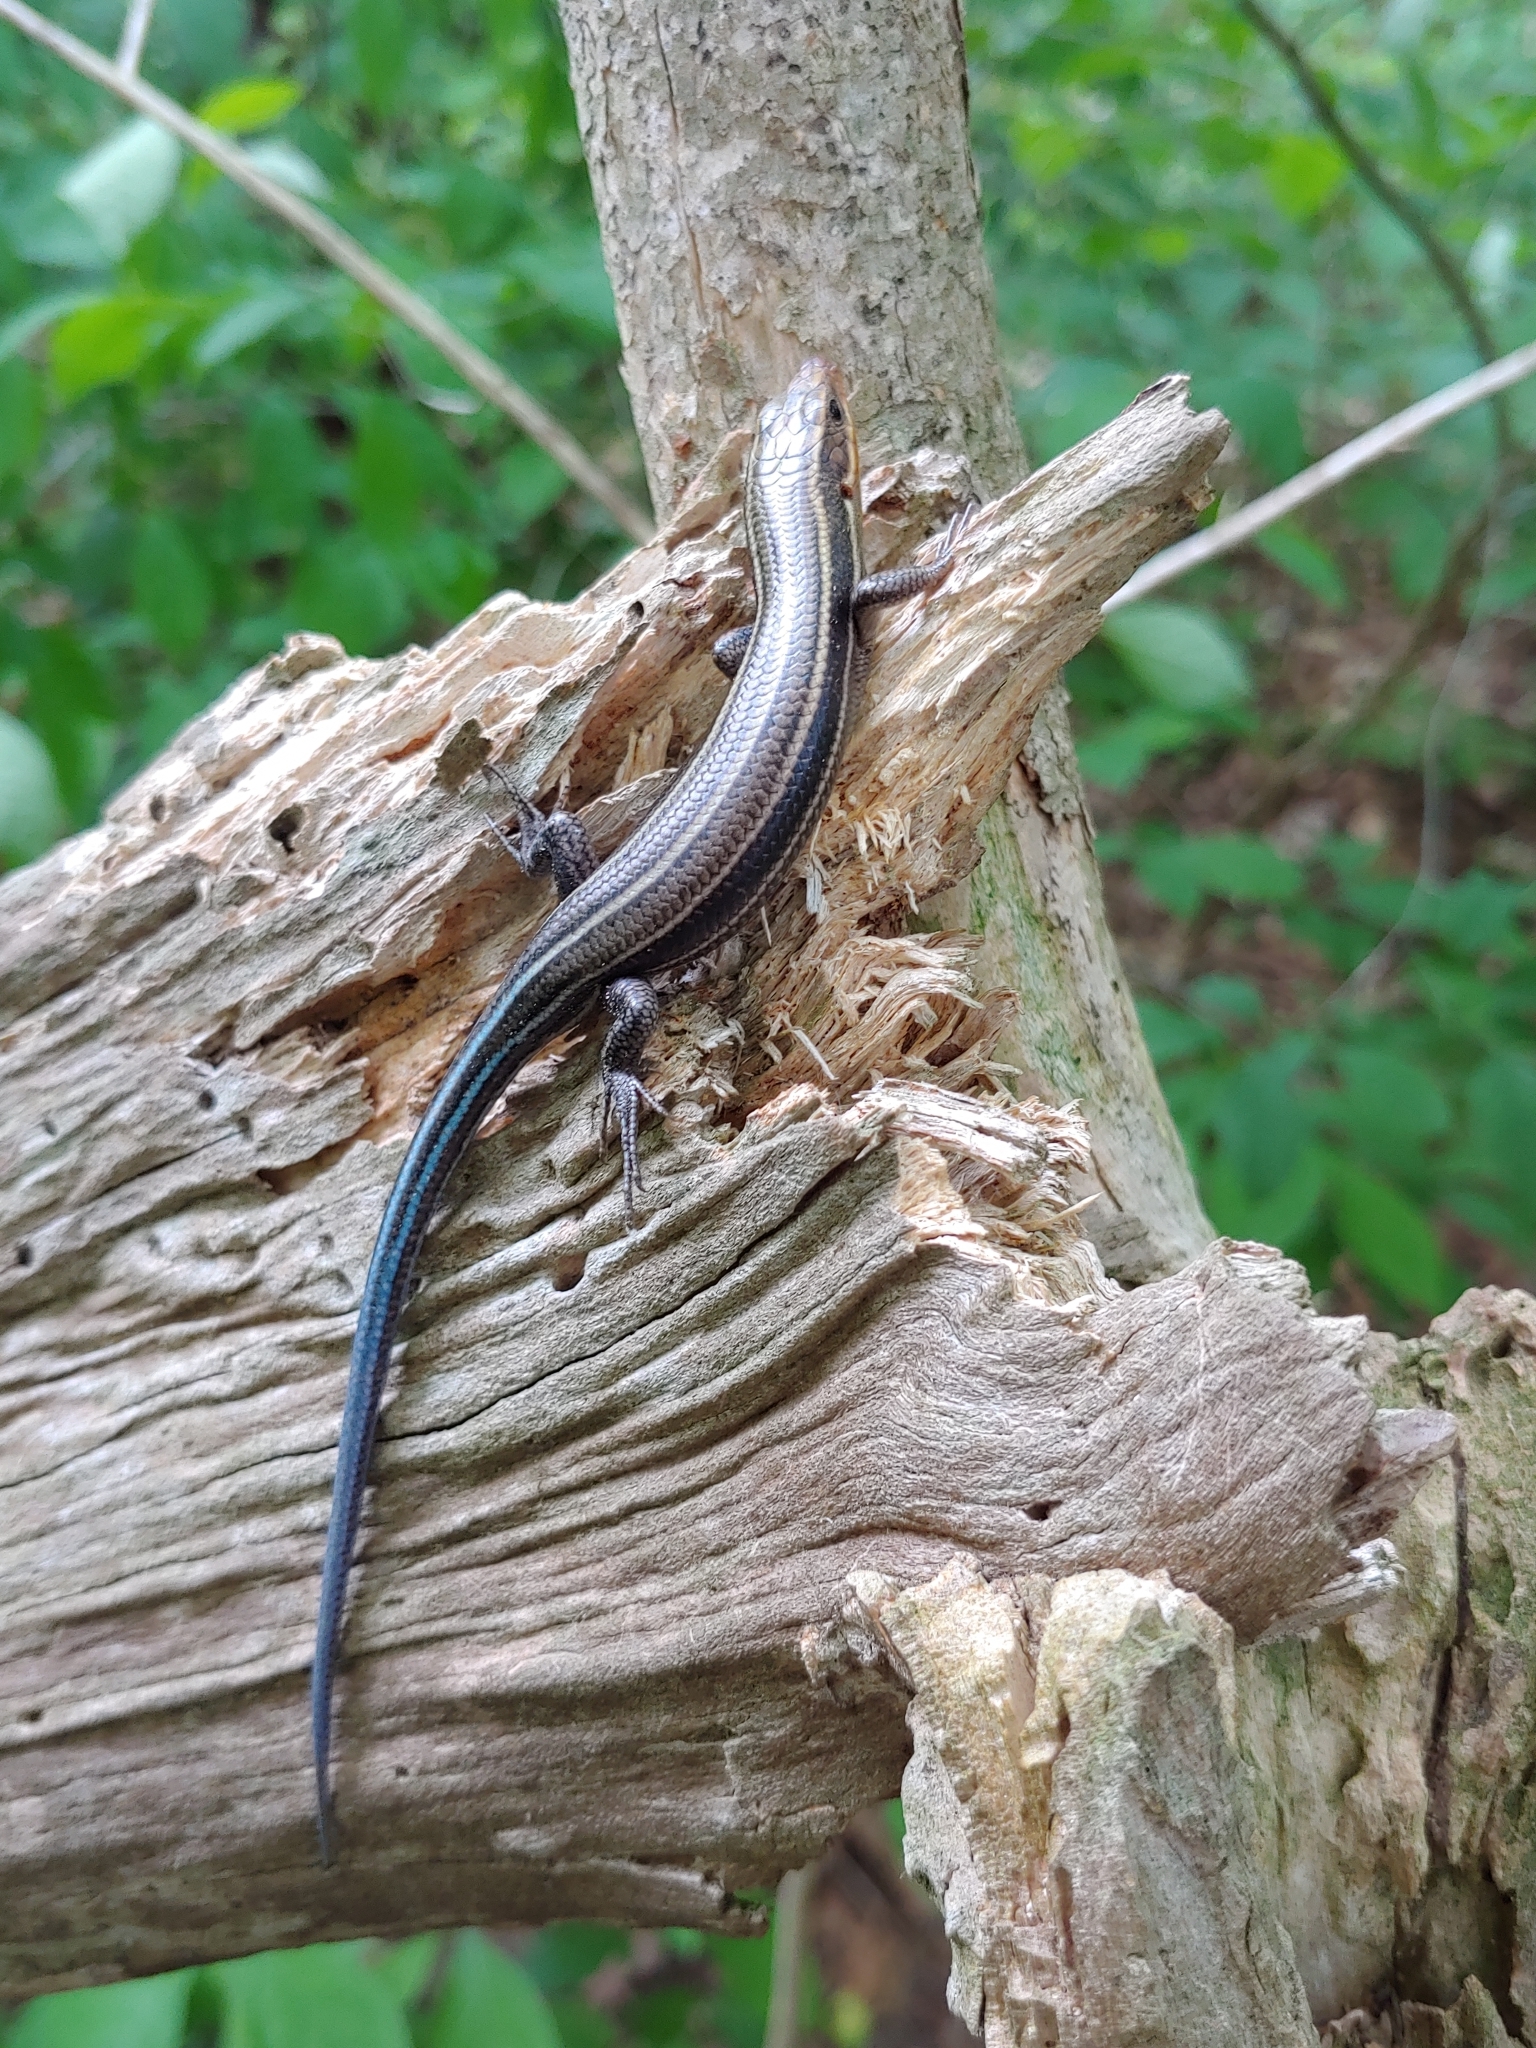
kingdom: Animalia
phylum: Chordata
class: Squamata
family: Scincidae
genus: Plestiodon
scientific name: Plestiodon fasciatus
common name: Five-lined skink
